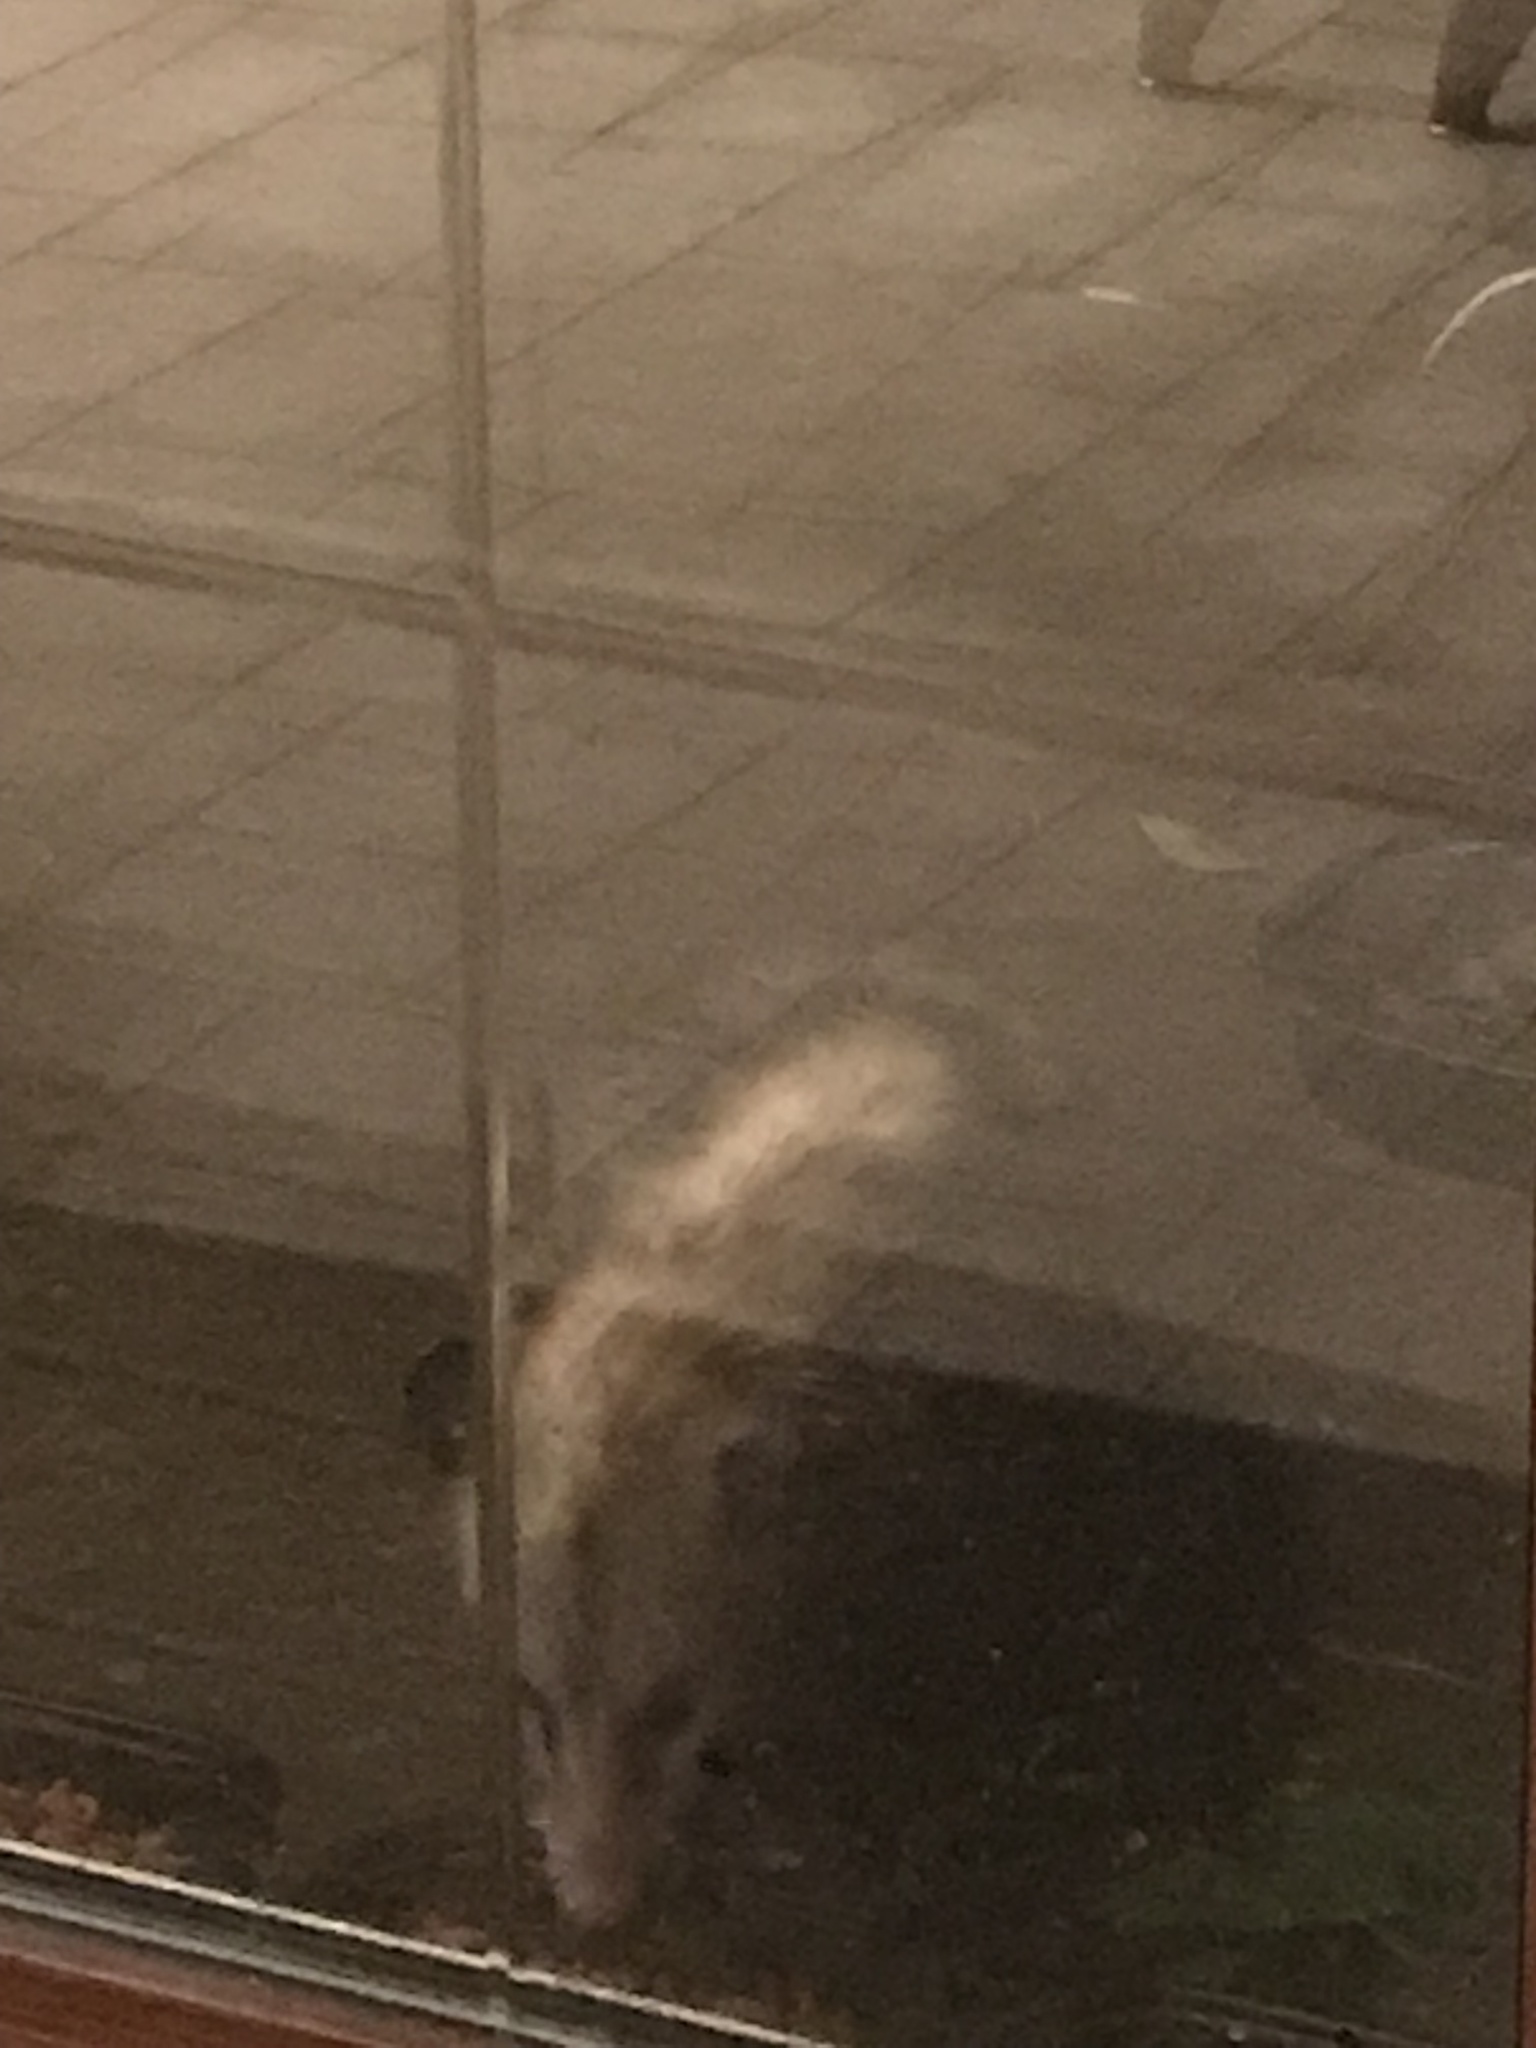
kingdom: Animalia
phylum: Chordata
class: Mammalia
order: Didelphimorphia
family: Didelphidae
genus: Didelphis
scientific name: Didelphis virginiana
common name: Virginia opossum
